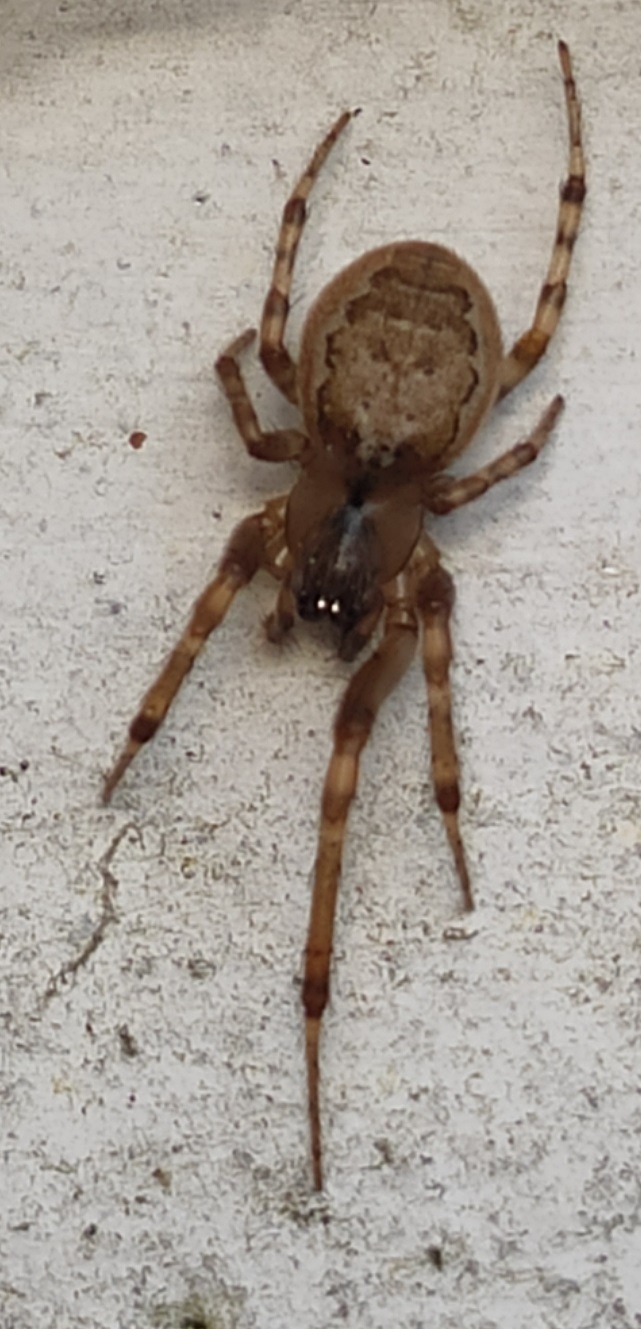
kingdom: Animalia
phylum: Arthropoda
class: Arachnida
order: Araneae
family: Araneidae
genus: Zygiella
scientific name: Zygiella x-notata
